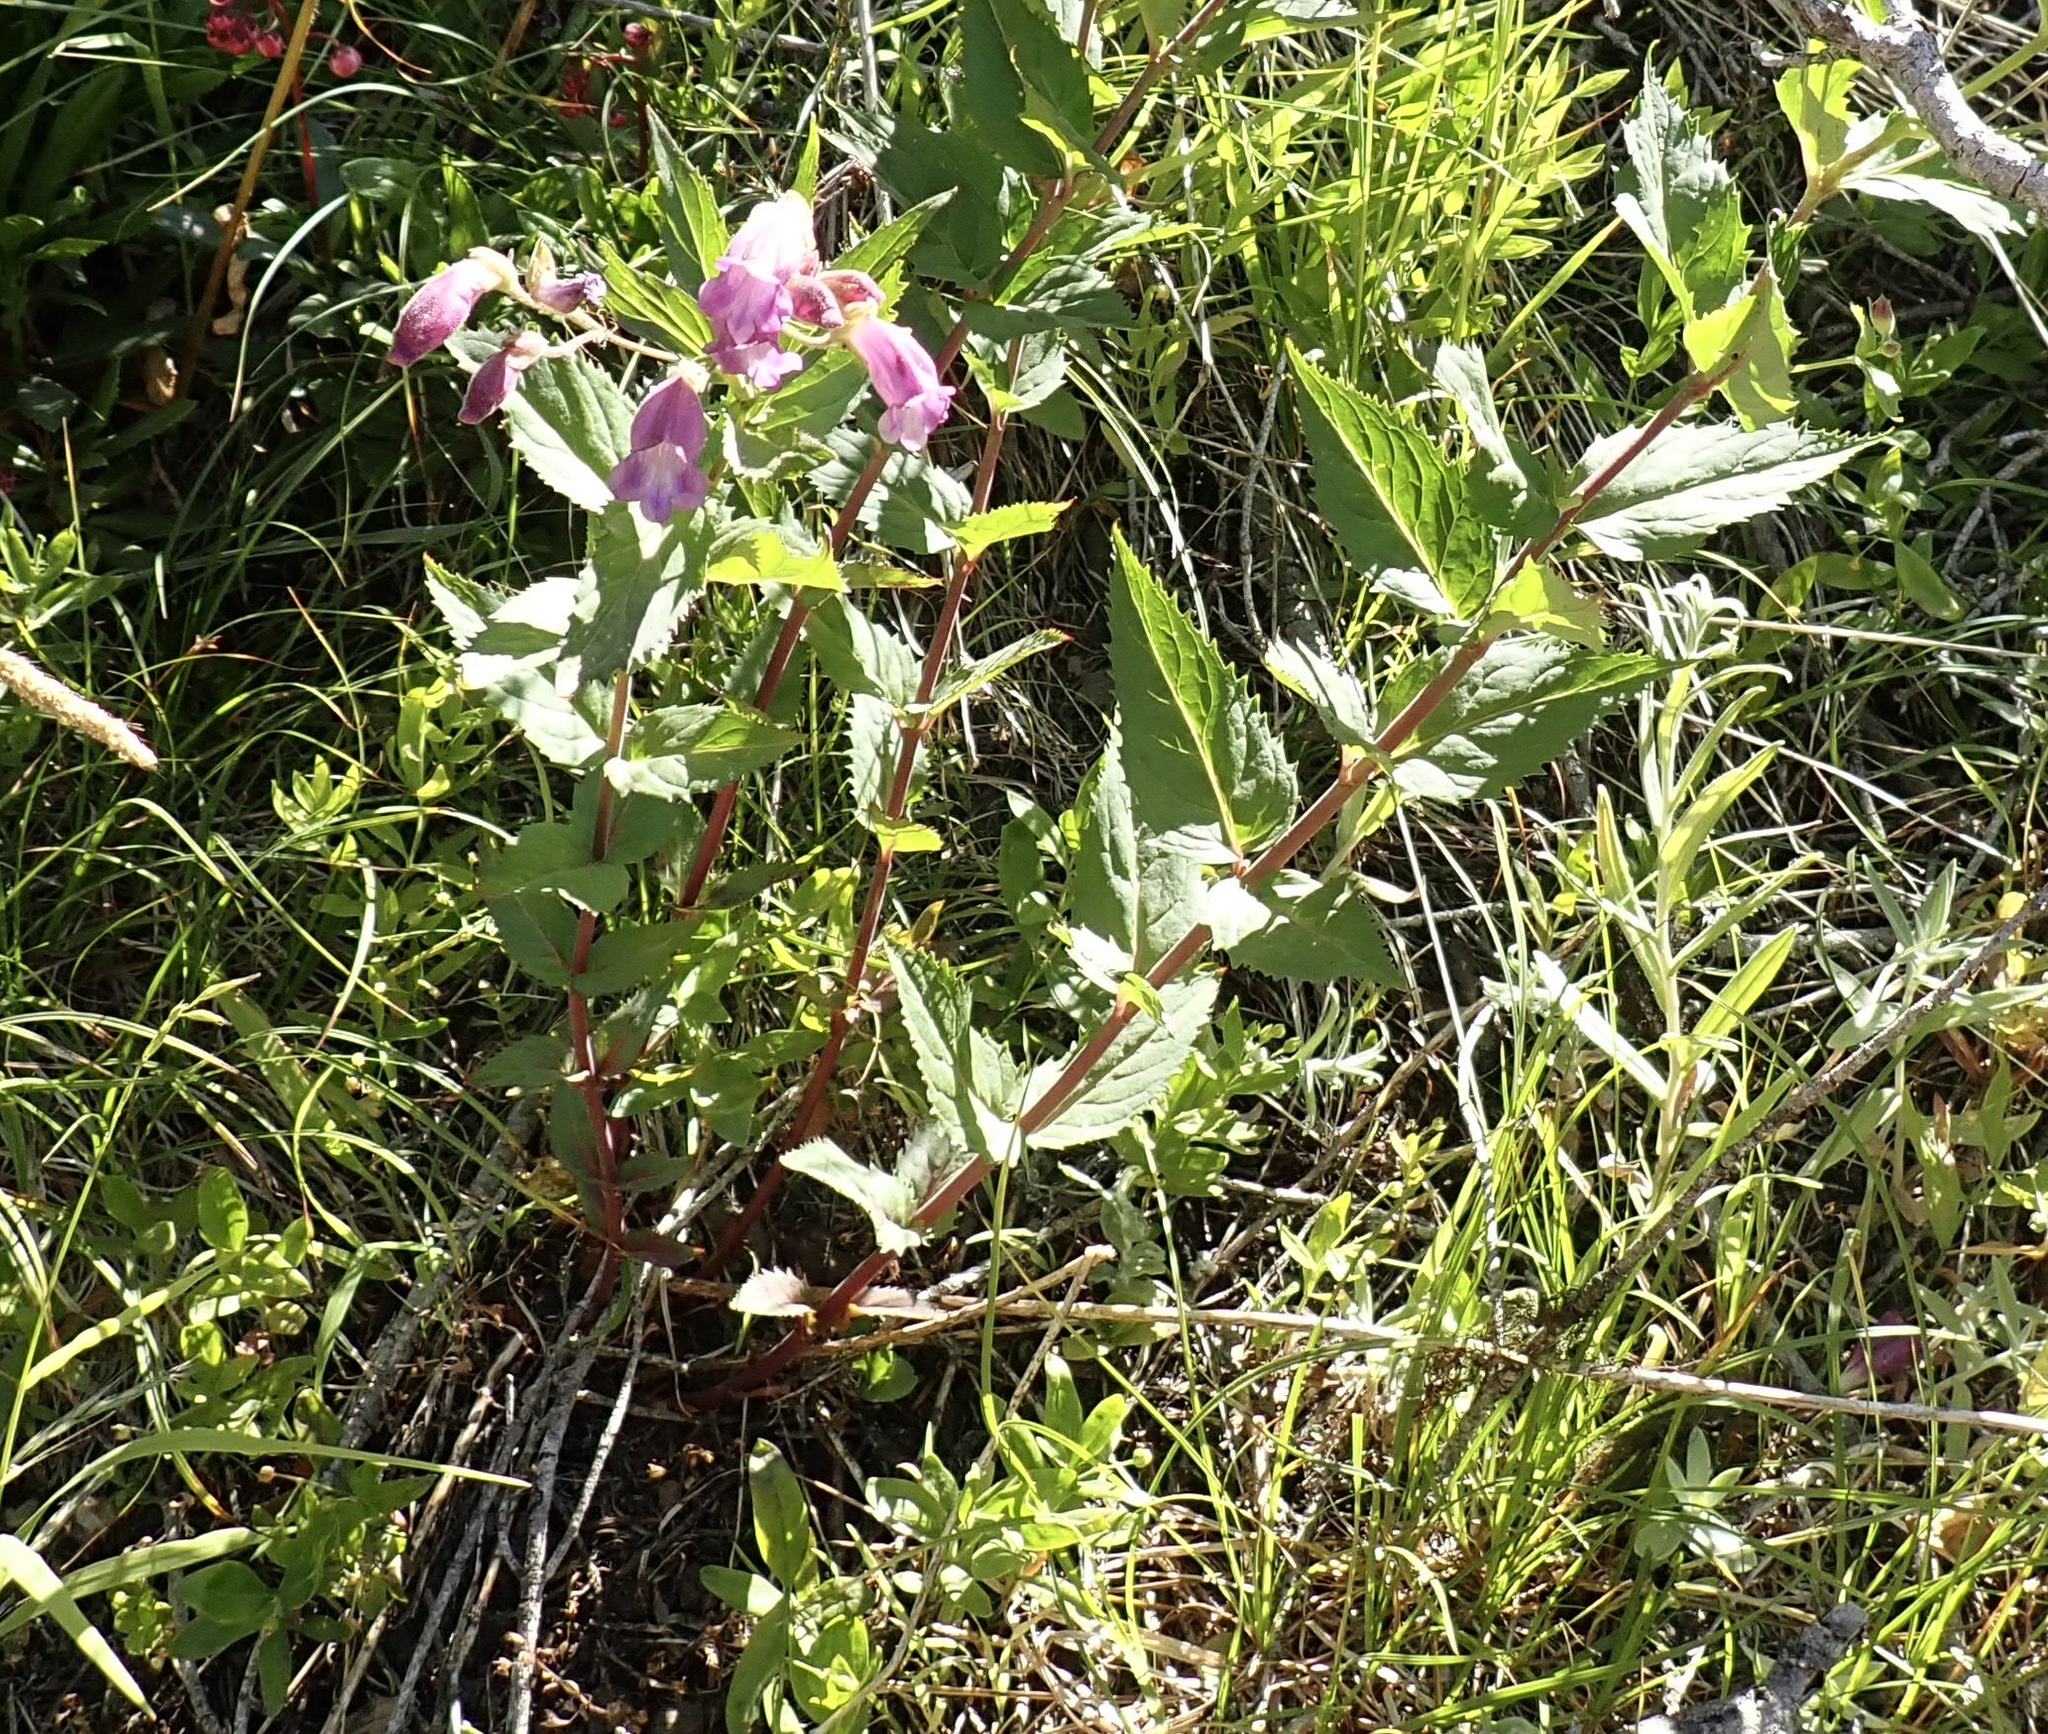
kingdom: Plantae
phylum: Tracheophyta
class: Magnoliopsida
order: Lamiales
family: Plantaginaceae
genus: Nothochelone
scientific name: Nothochelone nemorosa
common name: Woodland beardtongue
